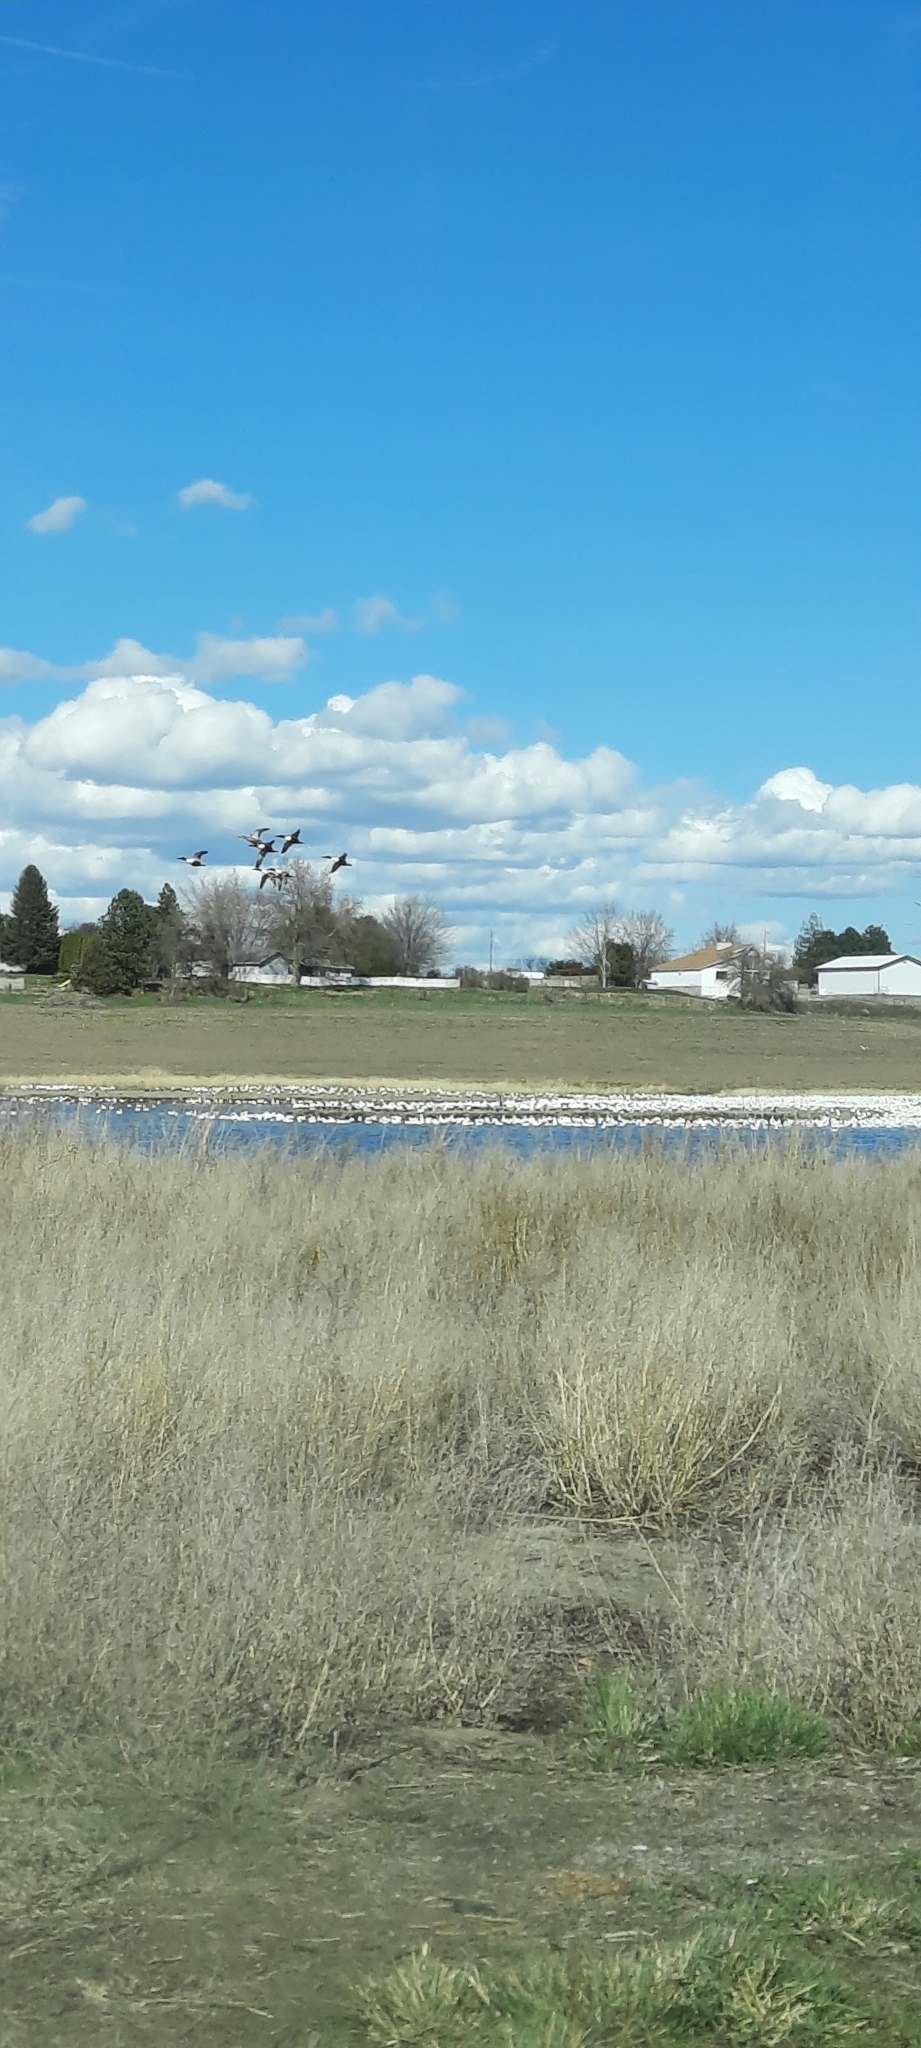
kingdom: Animalia
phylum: Chordata
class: Aves
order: Anseriformes
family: Anatidae
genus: Spatula
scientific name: Spatula clypeata
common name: Northern shoveler
